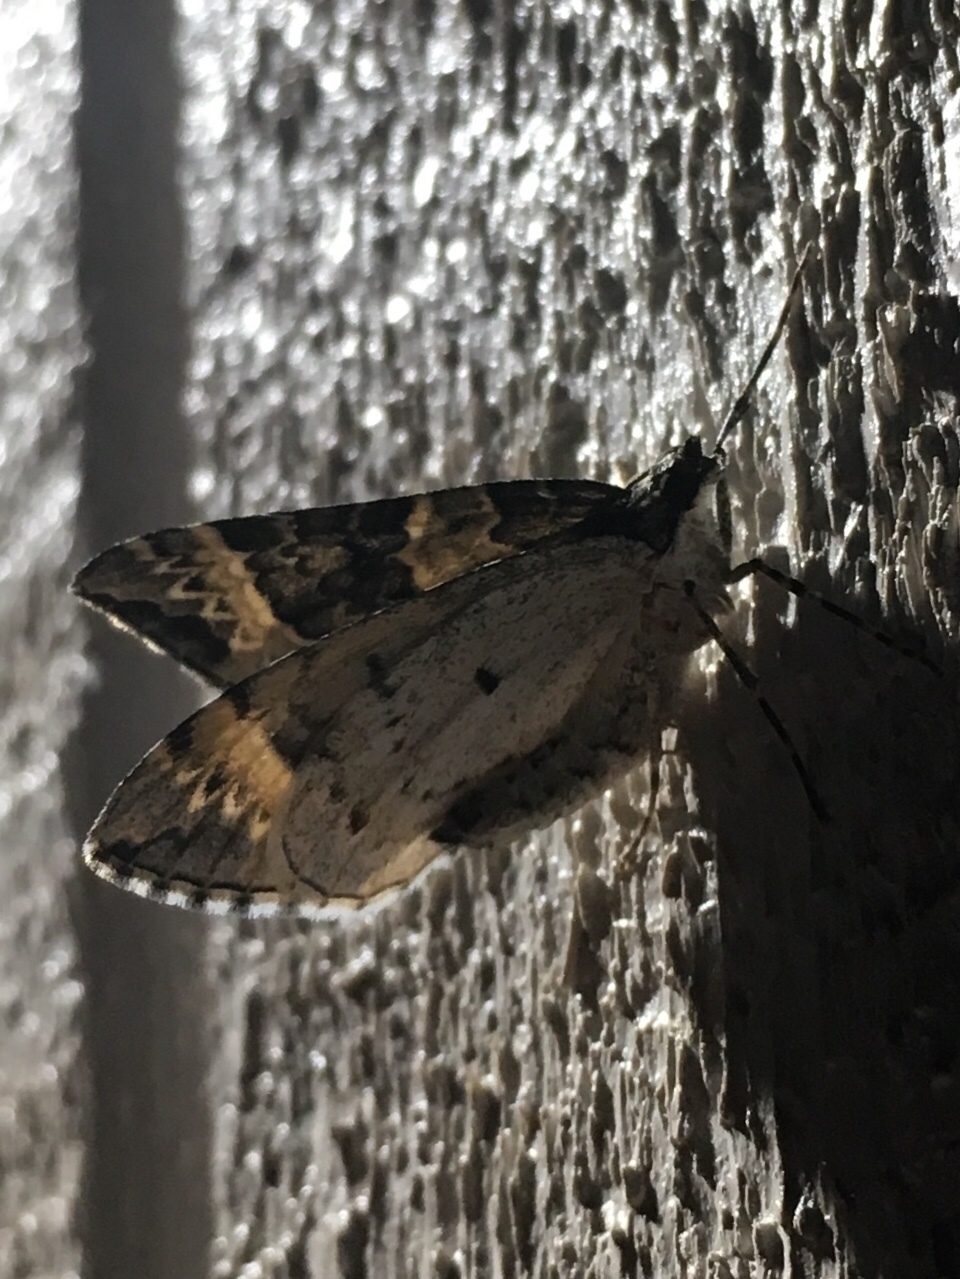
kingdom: Animalia
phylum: Arthropoda
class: Insecta
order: Lepidoptera
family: Geometridae
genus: Ecliptopera
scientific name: Ecliptopera silaceata
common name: Small phoenix
